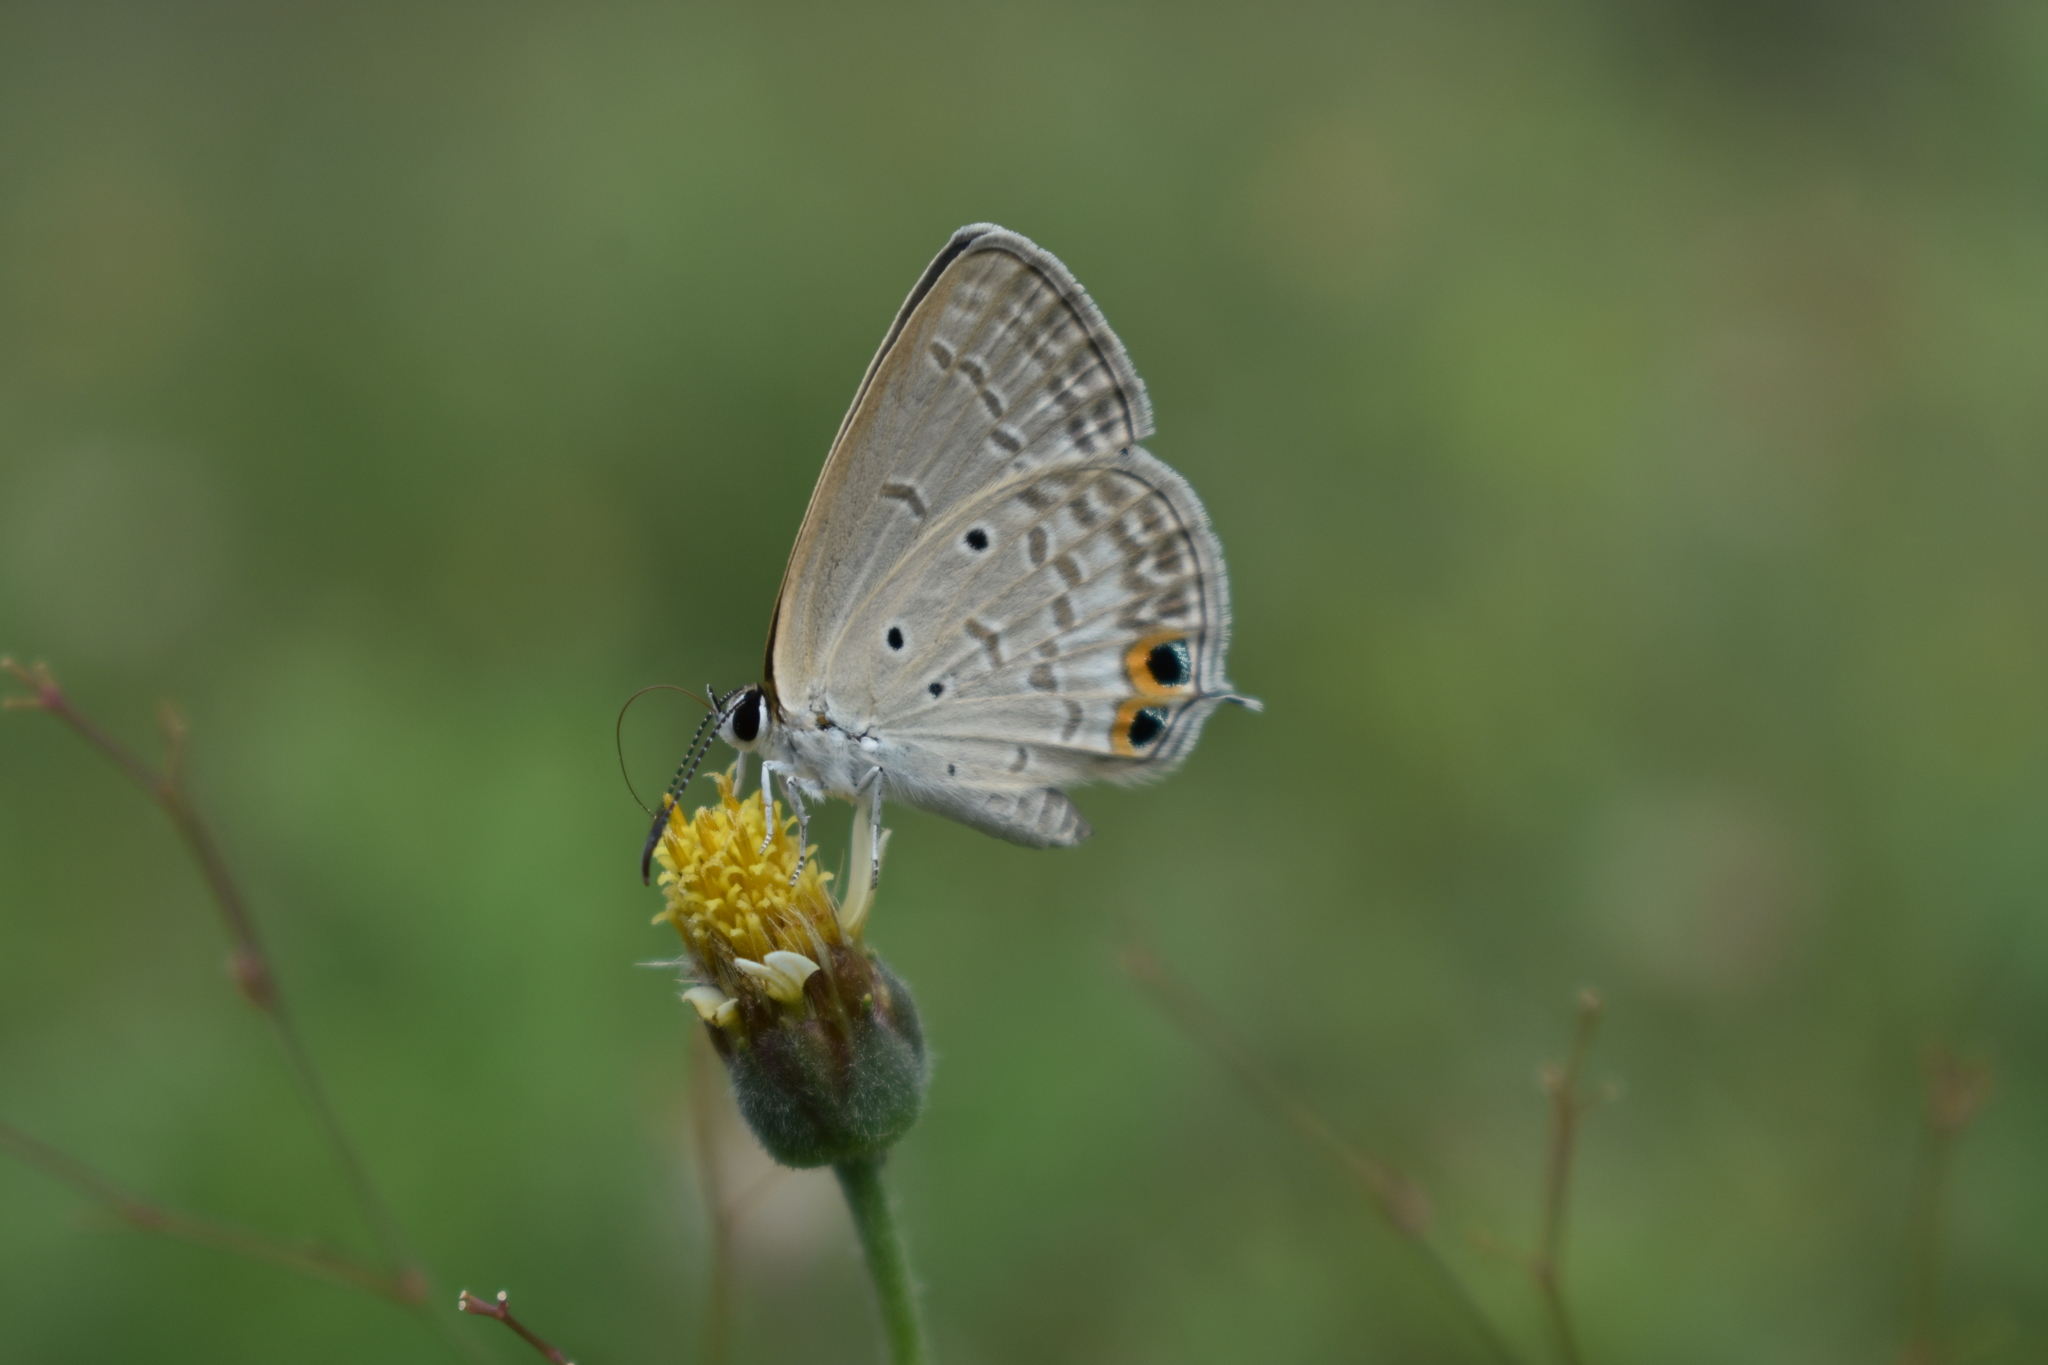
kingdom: Animalia
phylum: Arthropoda
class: Insecta
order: Lepidoptera
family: Lycaenidae
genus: Euchrysops
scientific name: Euchrysops cnejus
